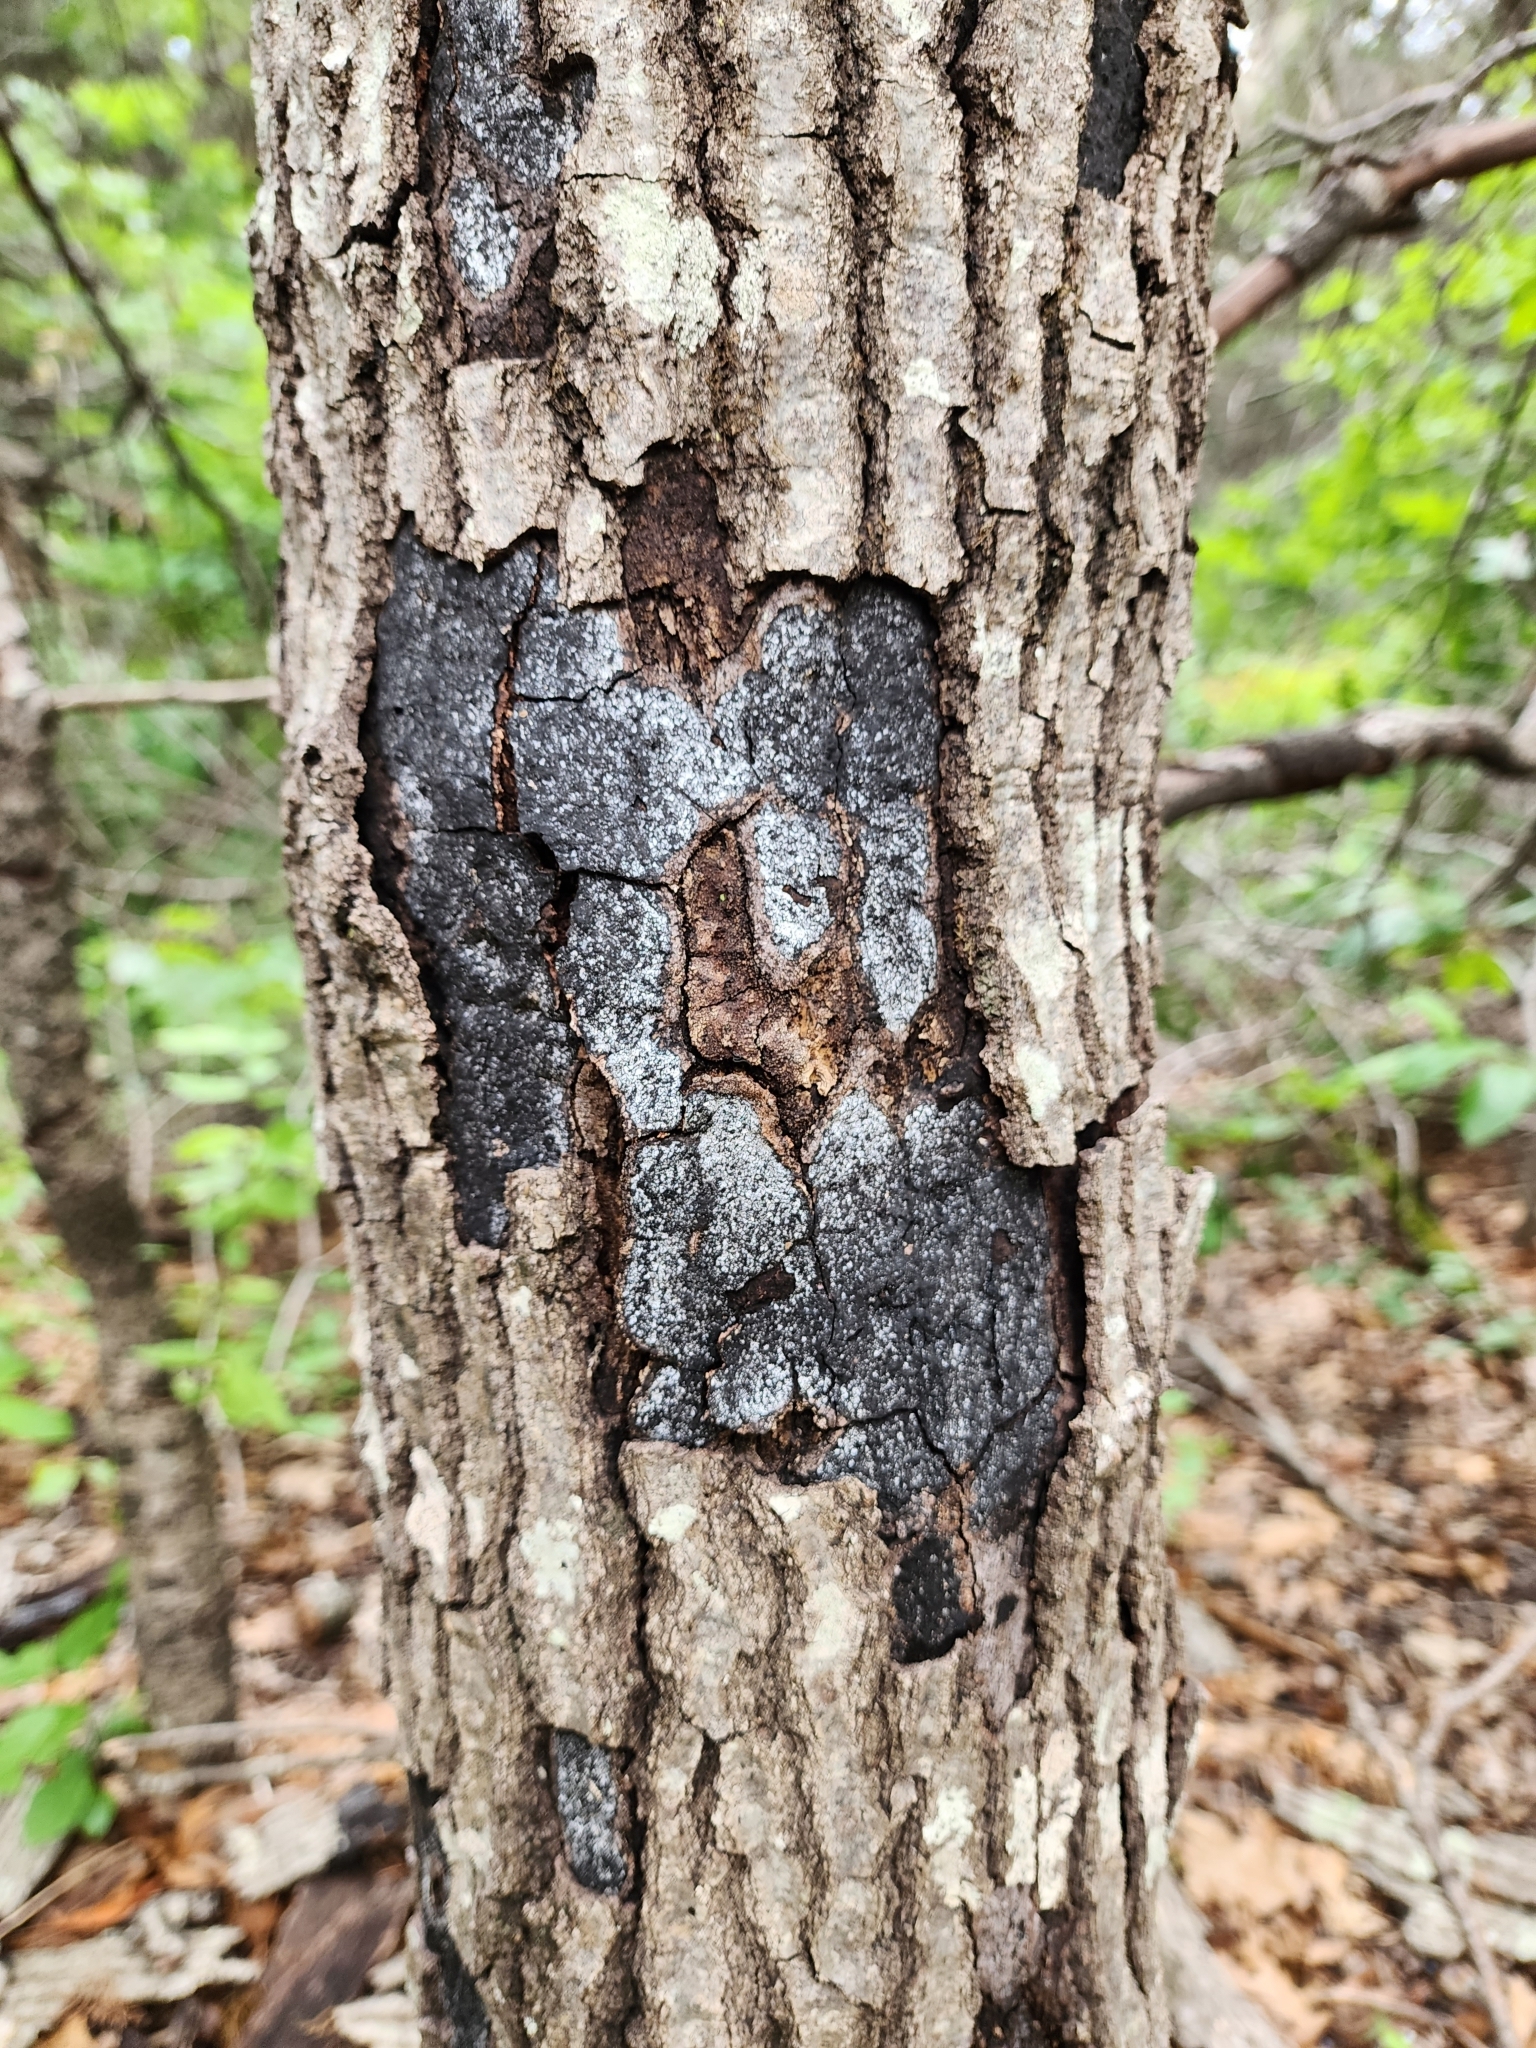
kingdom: Fungi
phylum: Ascomycota
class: Sordariomycetes
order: Xylariales
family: Graphostromataceae
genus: Biscogniauxia
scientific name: Biscogniauxia atropunctata
